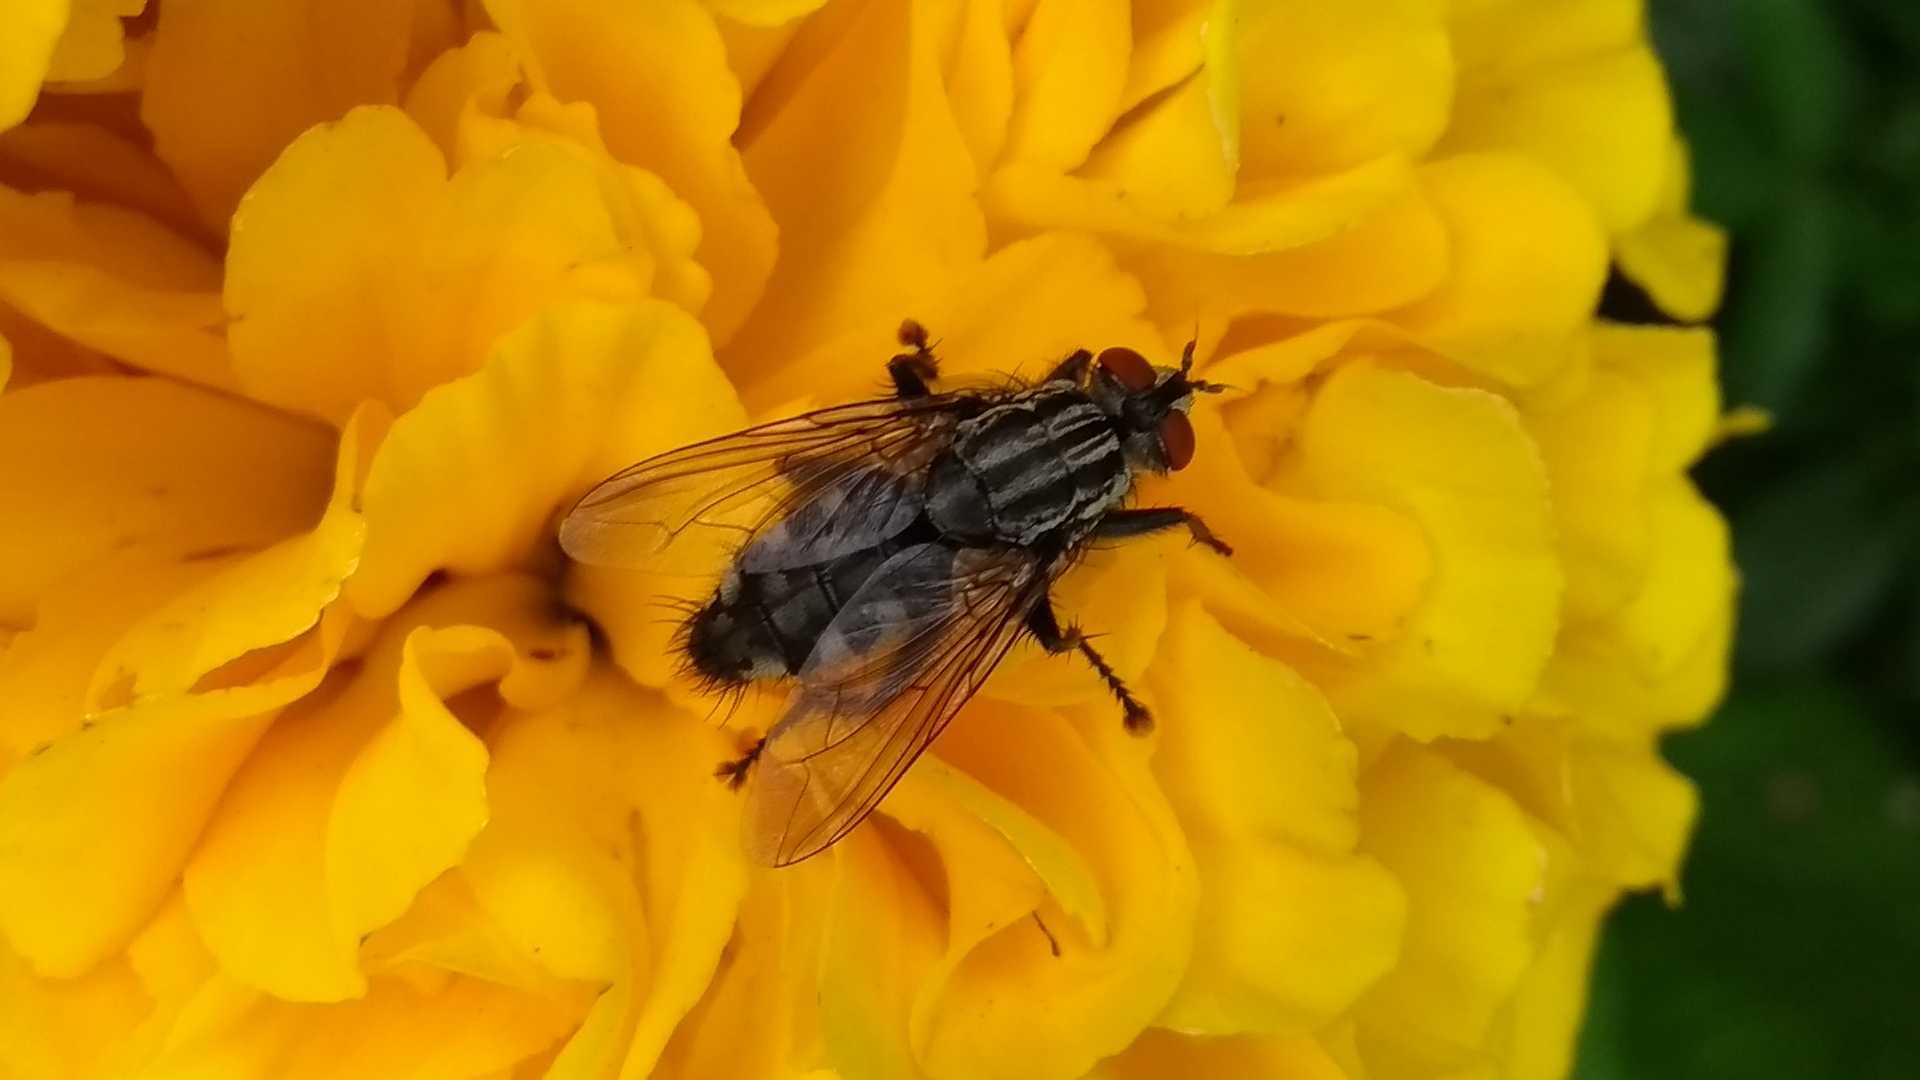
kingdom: Animalia
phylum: Arthropoda
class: Insecta
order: Diptera
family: Sarcophagidae
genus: Sarcophaga
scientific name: Sarcophaga
